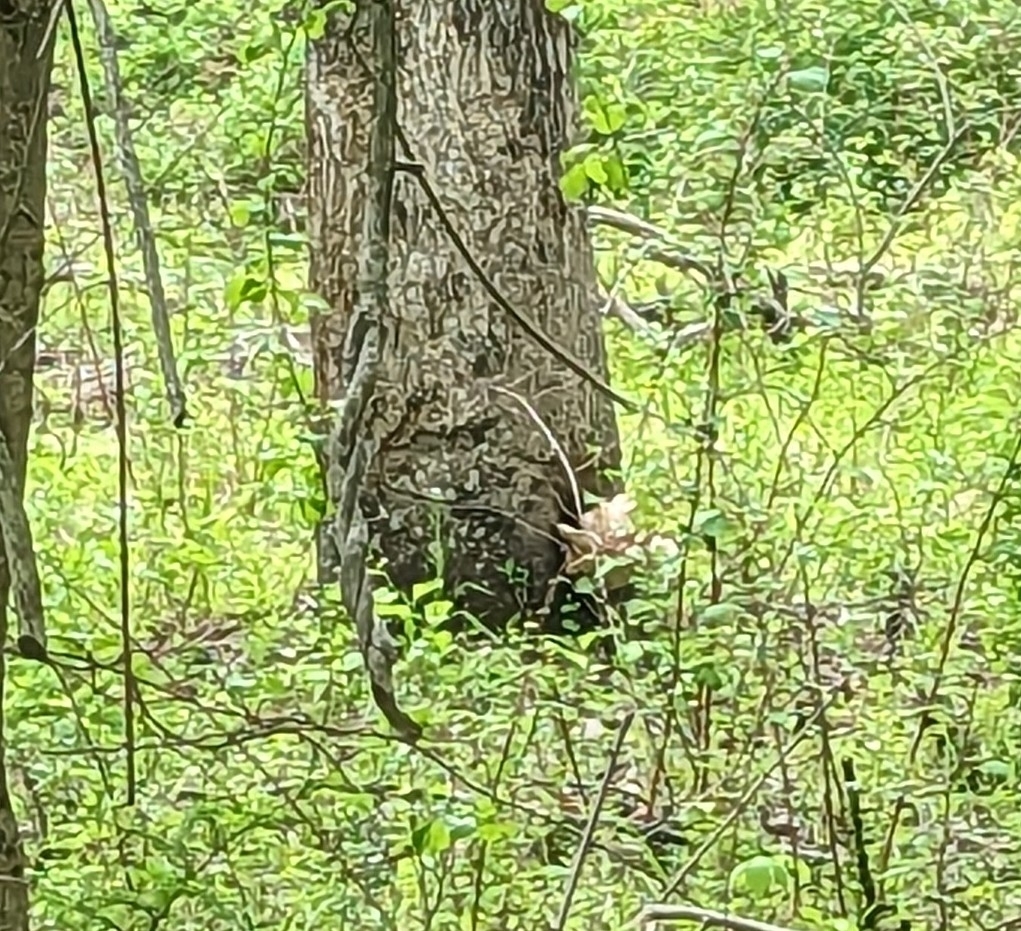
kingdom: Fungi
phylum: Basidiomycota
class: Agaricomycetes
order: Polyporales
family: Polyporaceae
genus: Cerioporus
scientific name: Cerioporus squamosus
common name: Dryad's saddle
